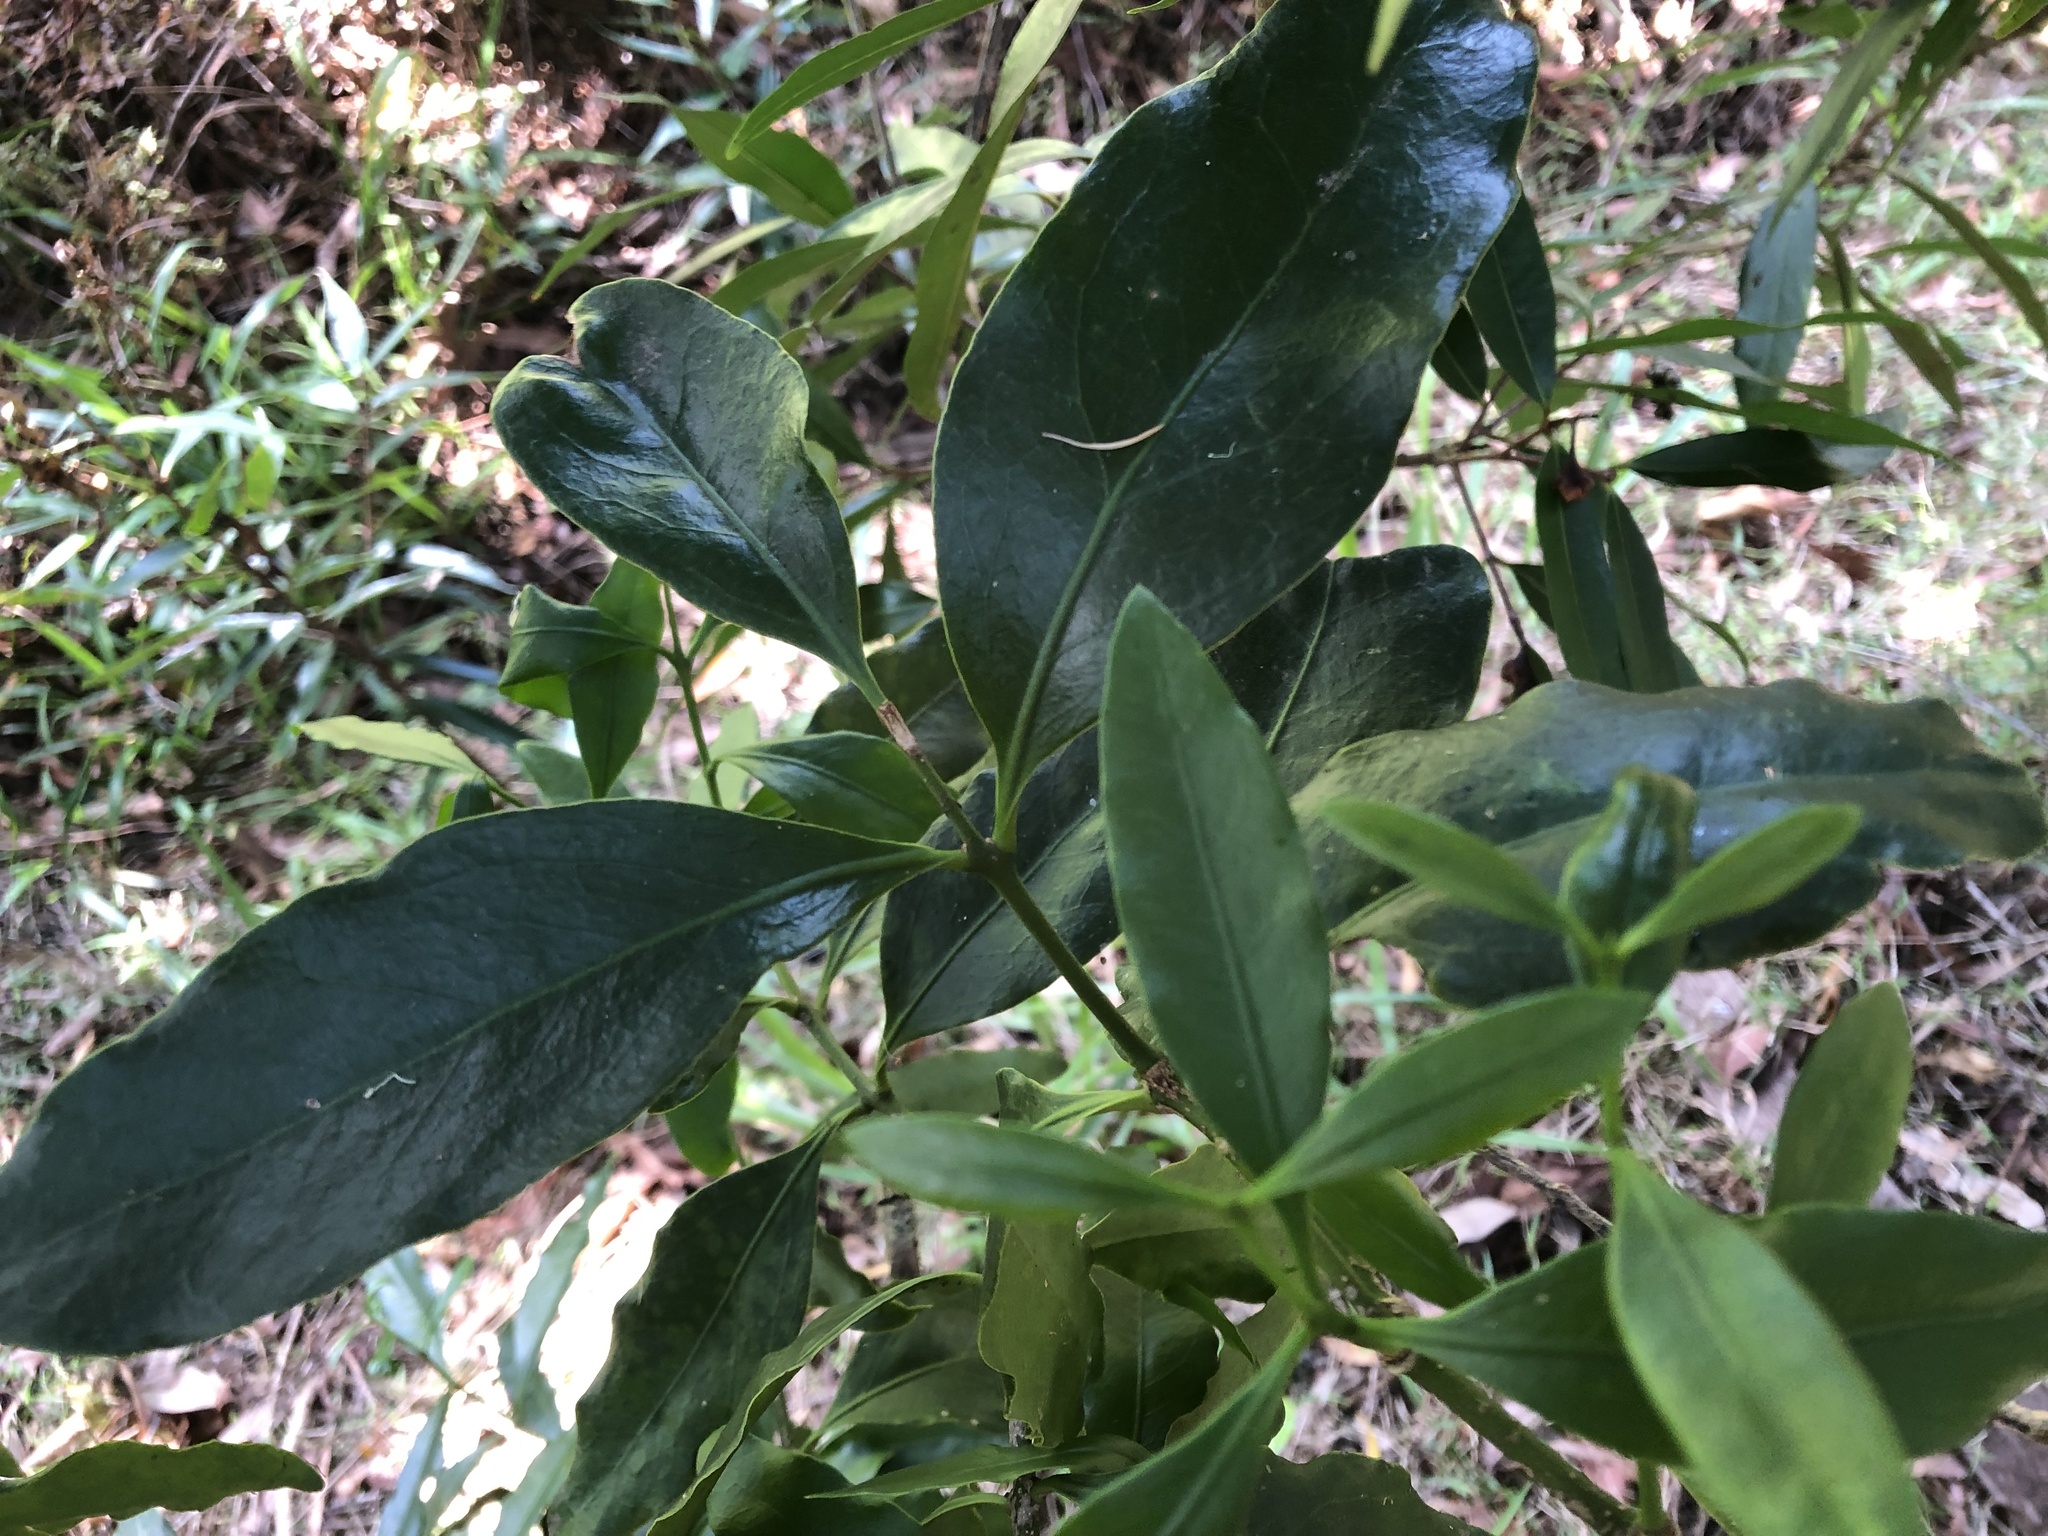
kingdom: Plantae
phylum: Tracheophyta
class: Magnoliopsida
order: Santalales
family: Loranthaceae
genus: Amylotheca
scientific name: Amylotheca dictyophleba
